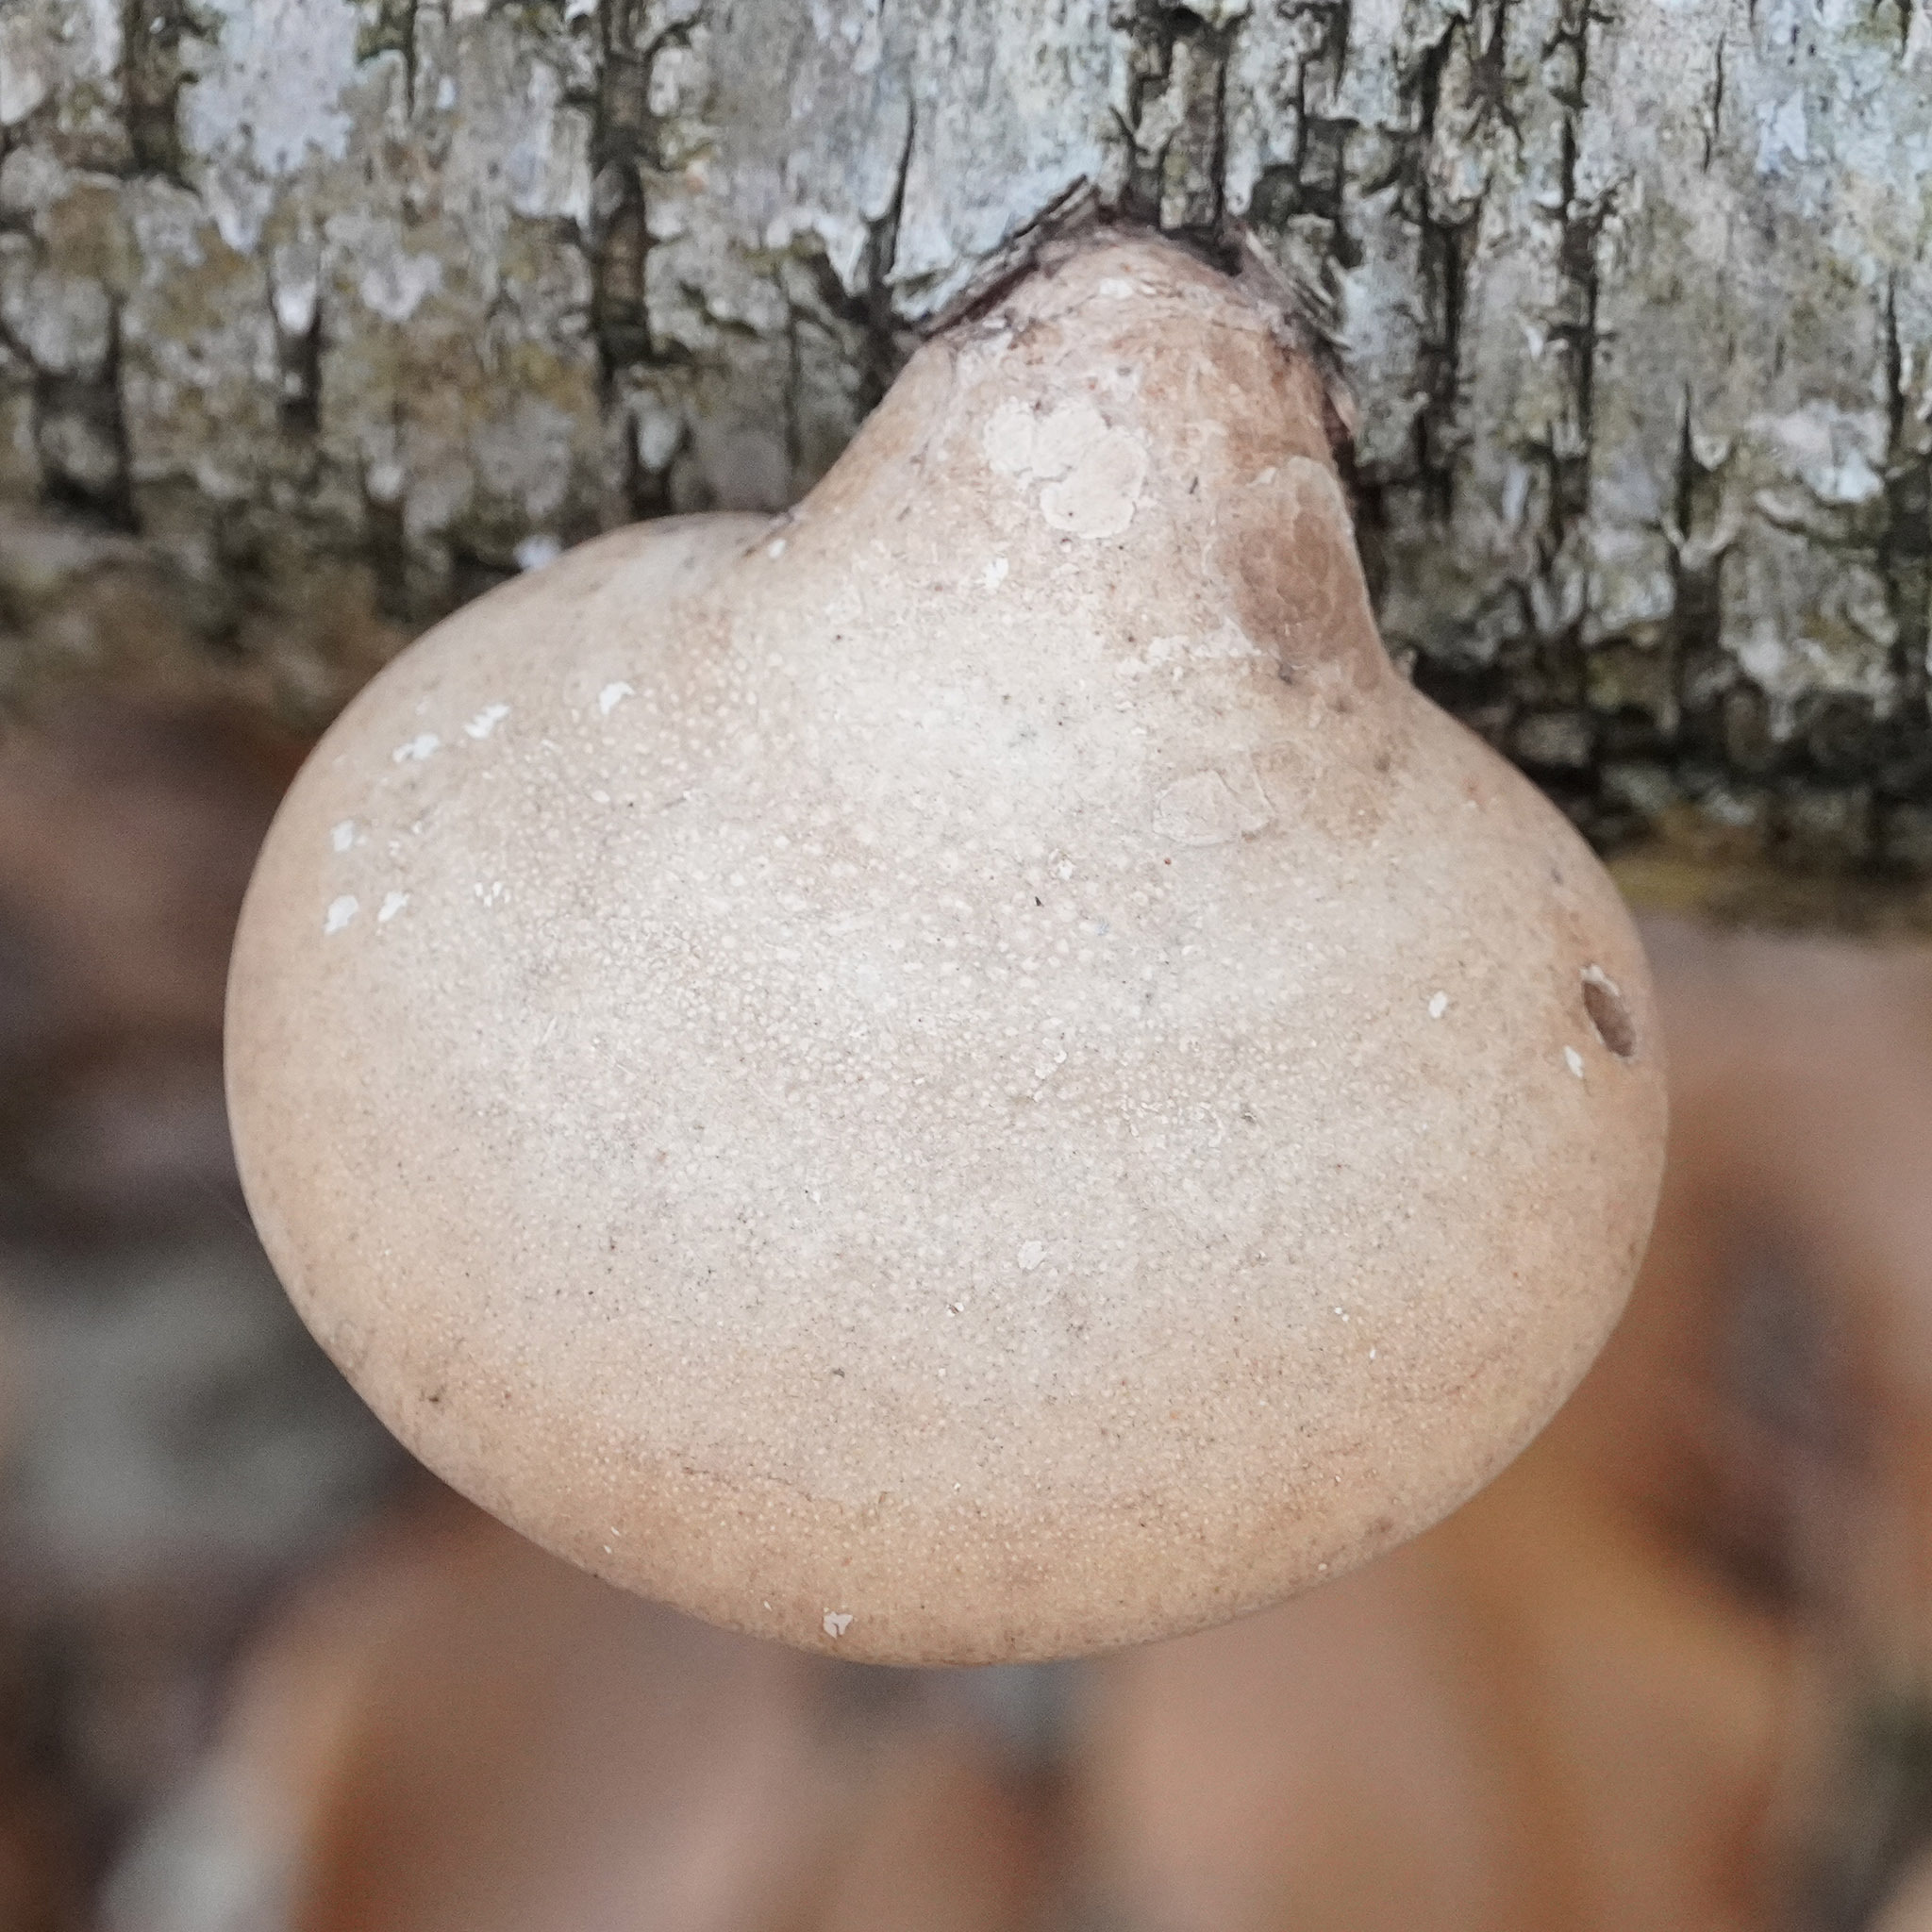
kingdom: Fungi
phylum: Basidiomycota
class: Agaricomycetes
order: Polyporales
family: Fomitopsidaceae
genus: Fomitopsis
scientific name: Fomitopsis betulina
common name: Birch polypore
